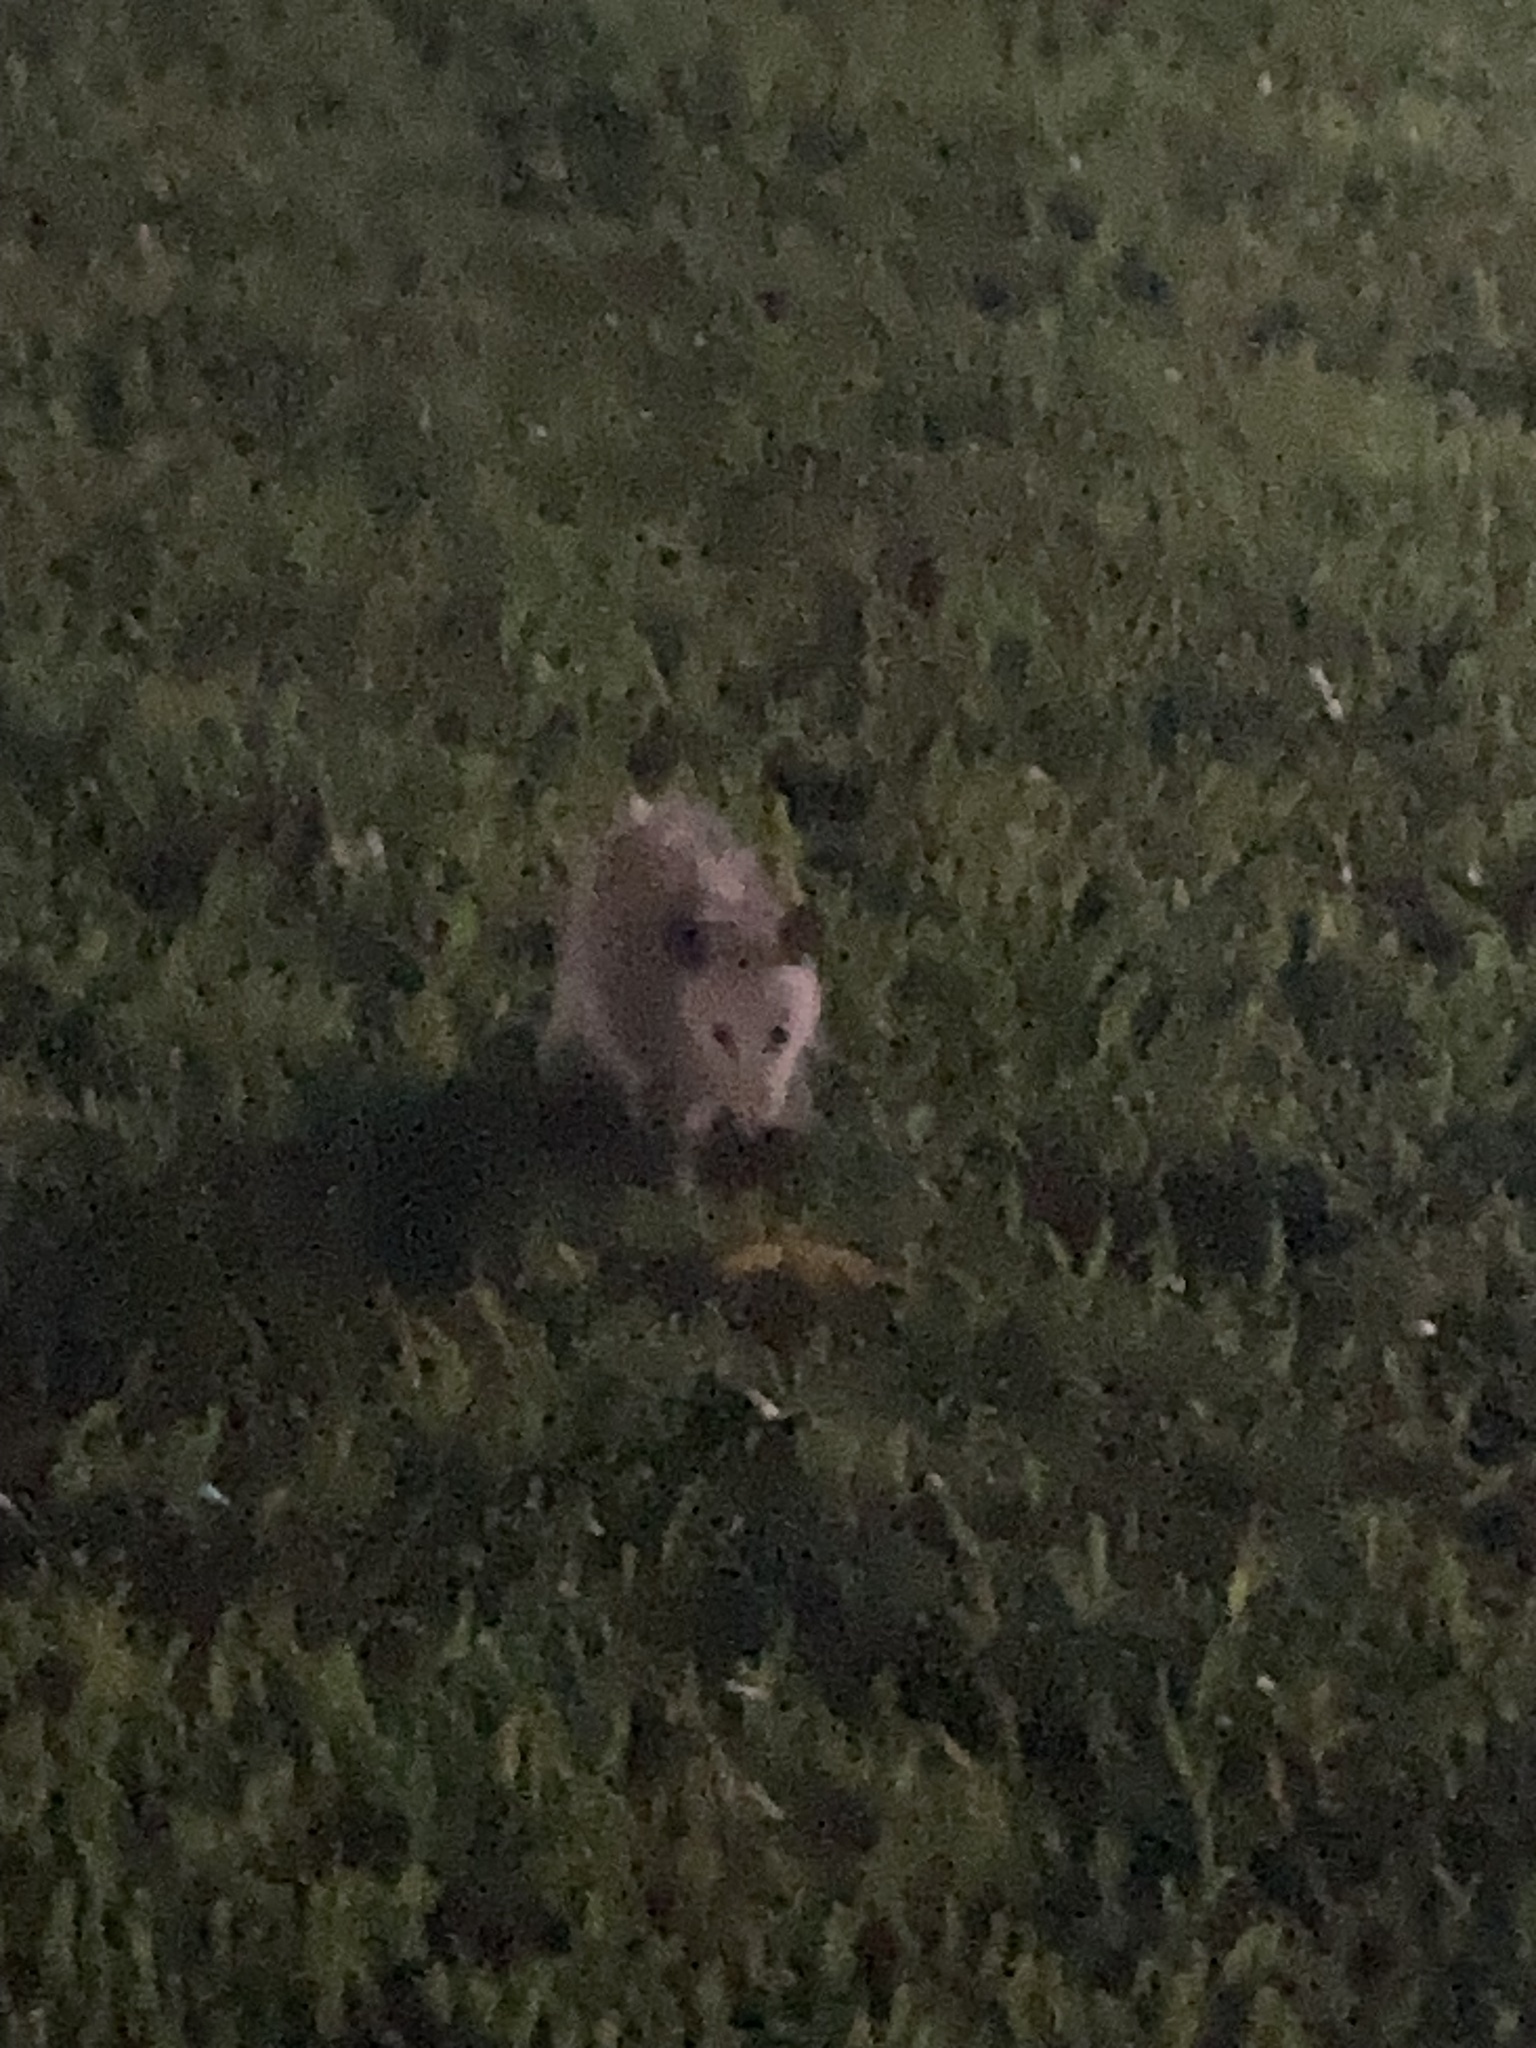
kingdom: Animalia
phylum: Chordata
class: Mammalia
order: Didelphimorphia
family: Didelphidae
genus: Didelphis
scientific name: Didelphis virginiana
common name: Virginia opossum
